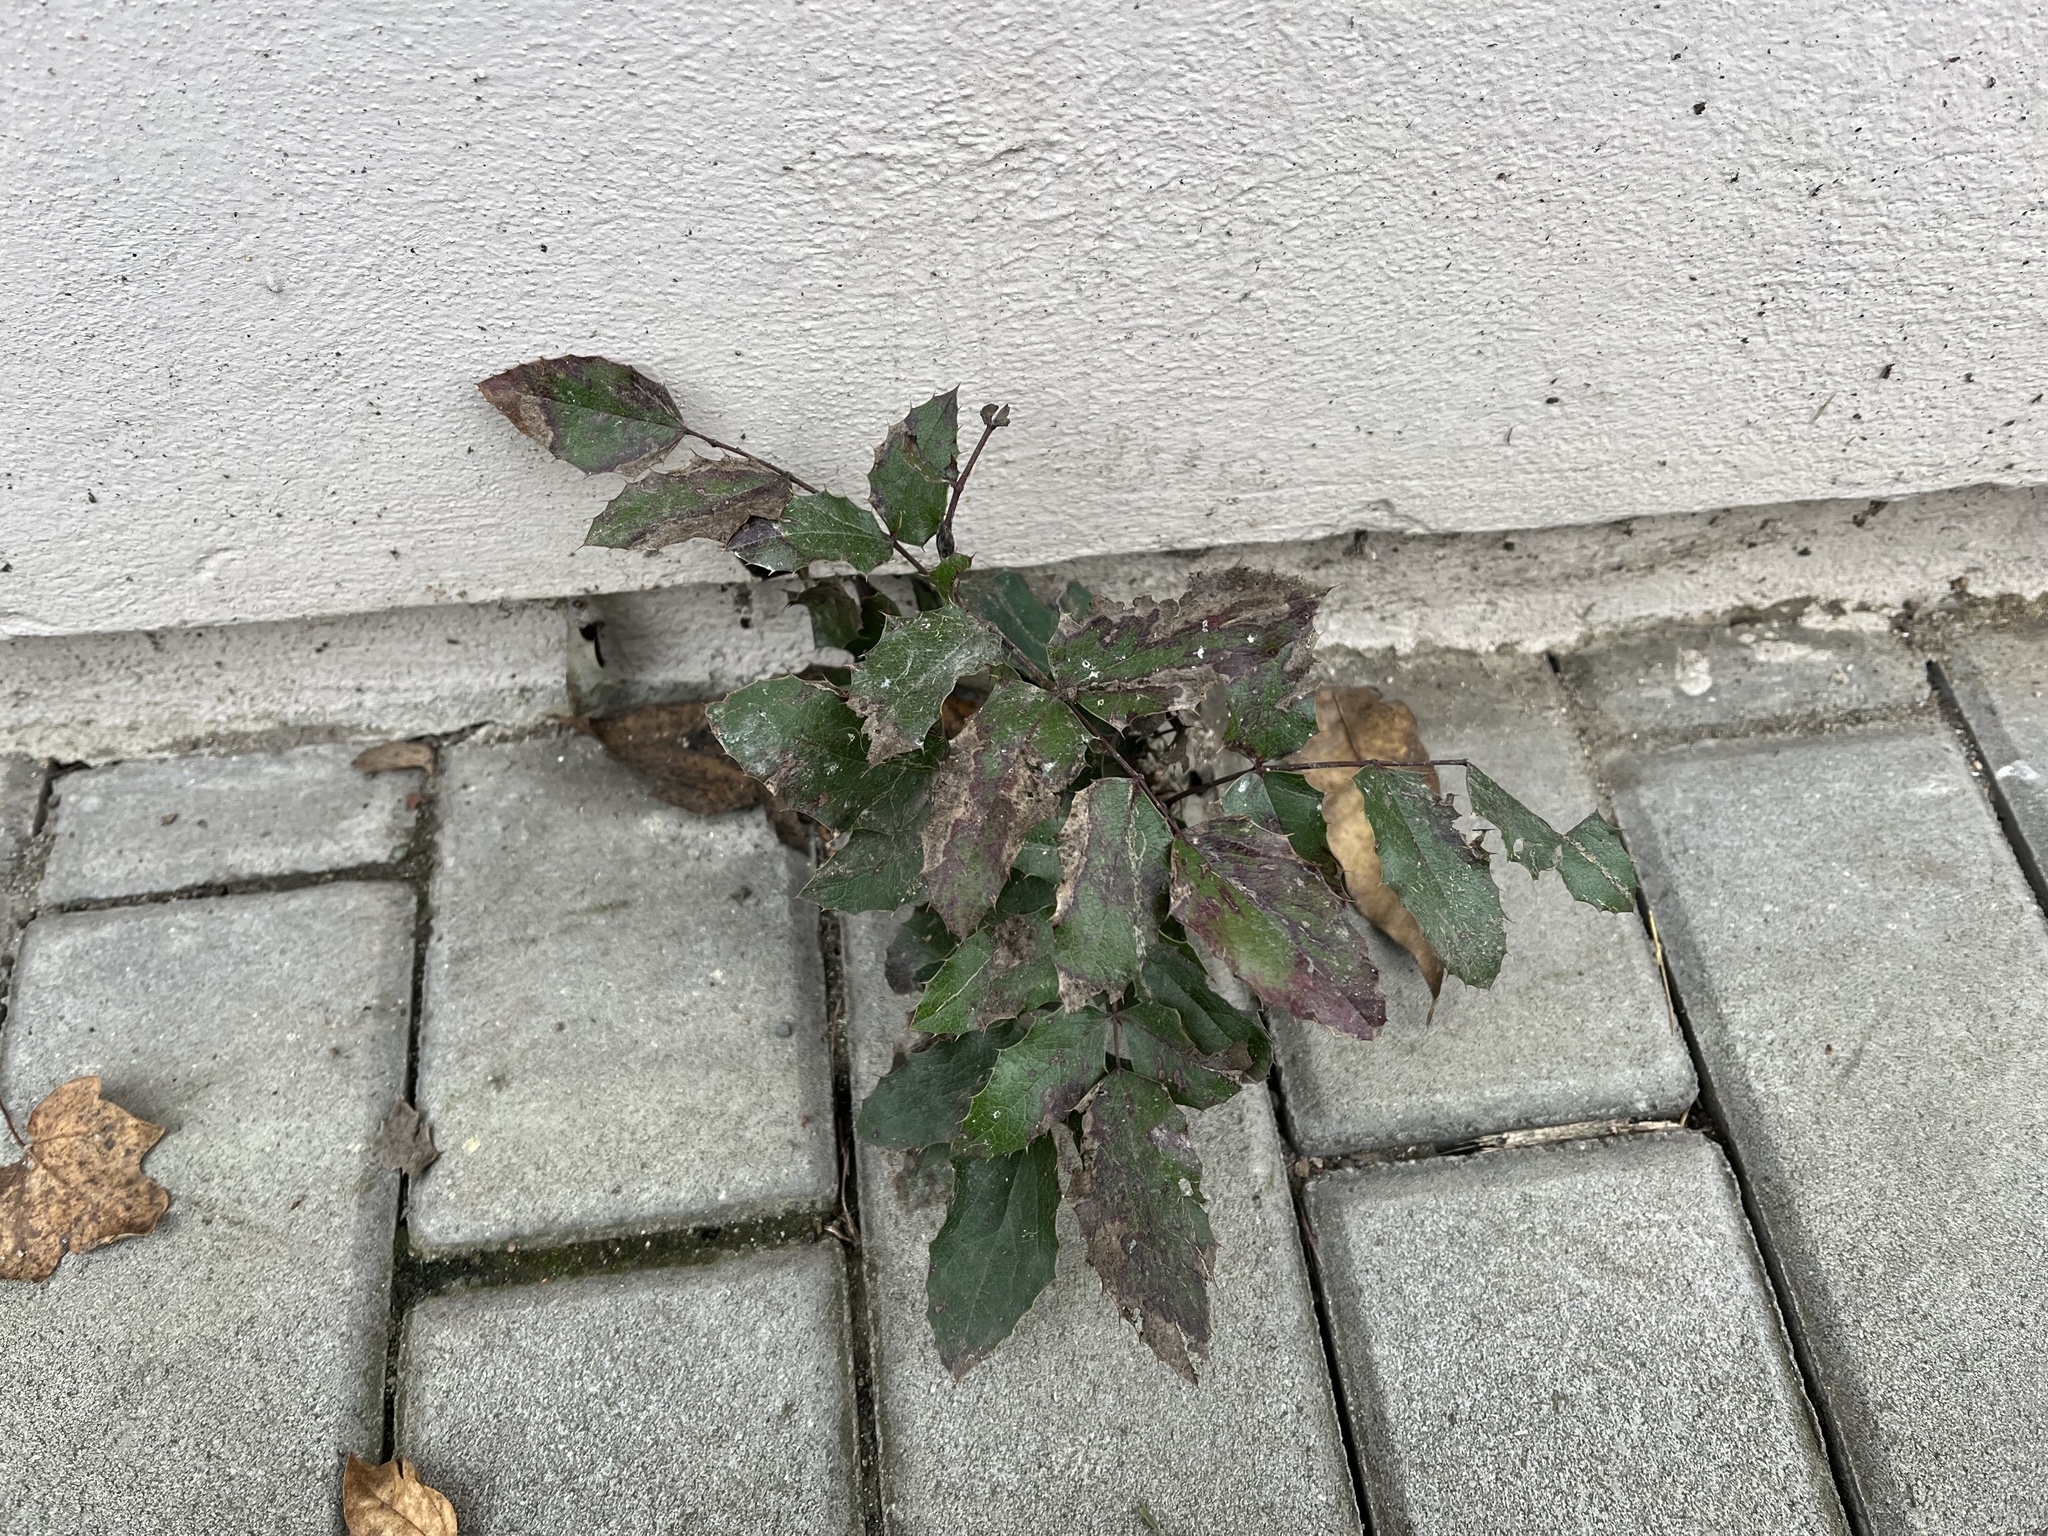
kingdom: Plantae
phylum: Tracheophyta
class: Magnoliopsida
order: Ranunculales
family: Berberidaceae
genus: Mahonia
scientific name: Mahonia aquifolium
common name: Oregon-grape
